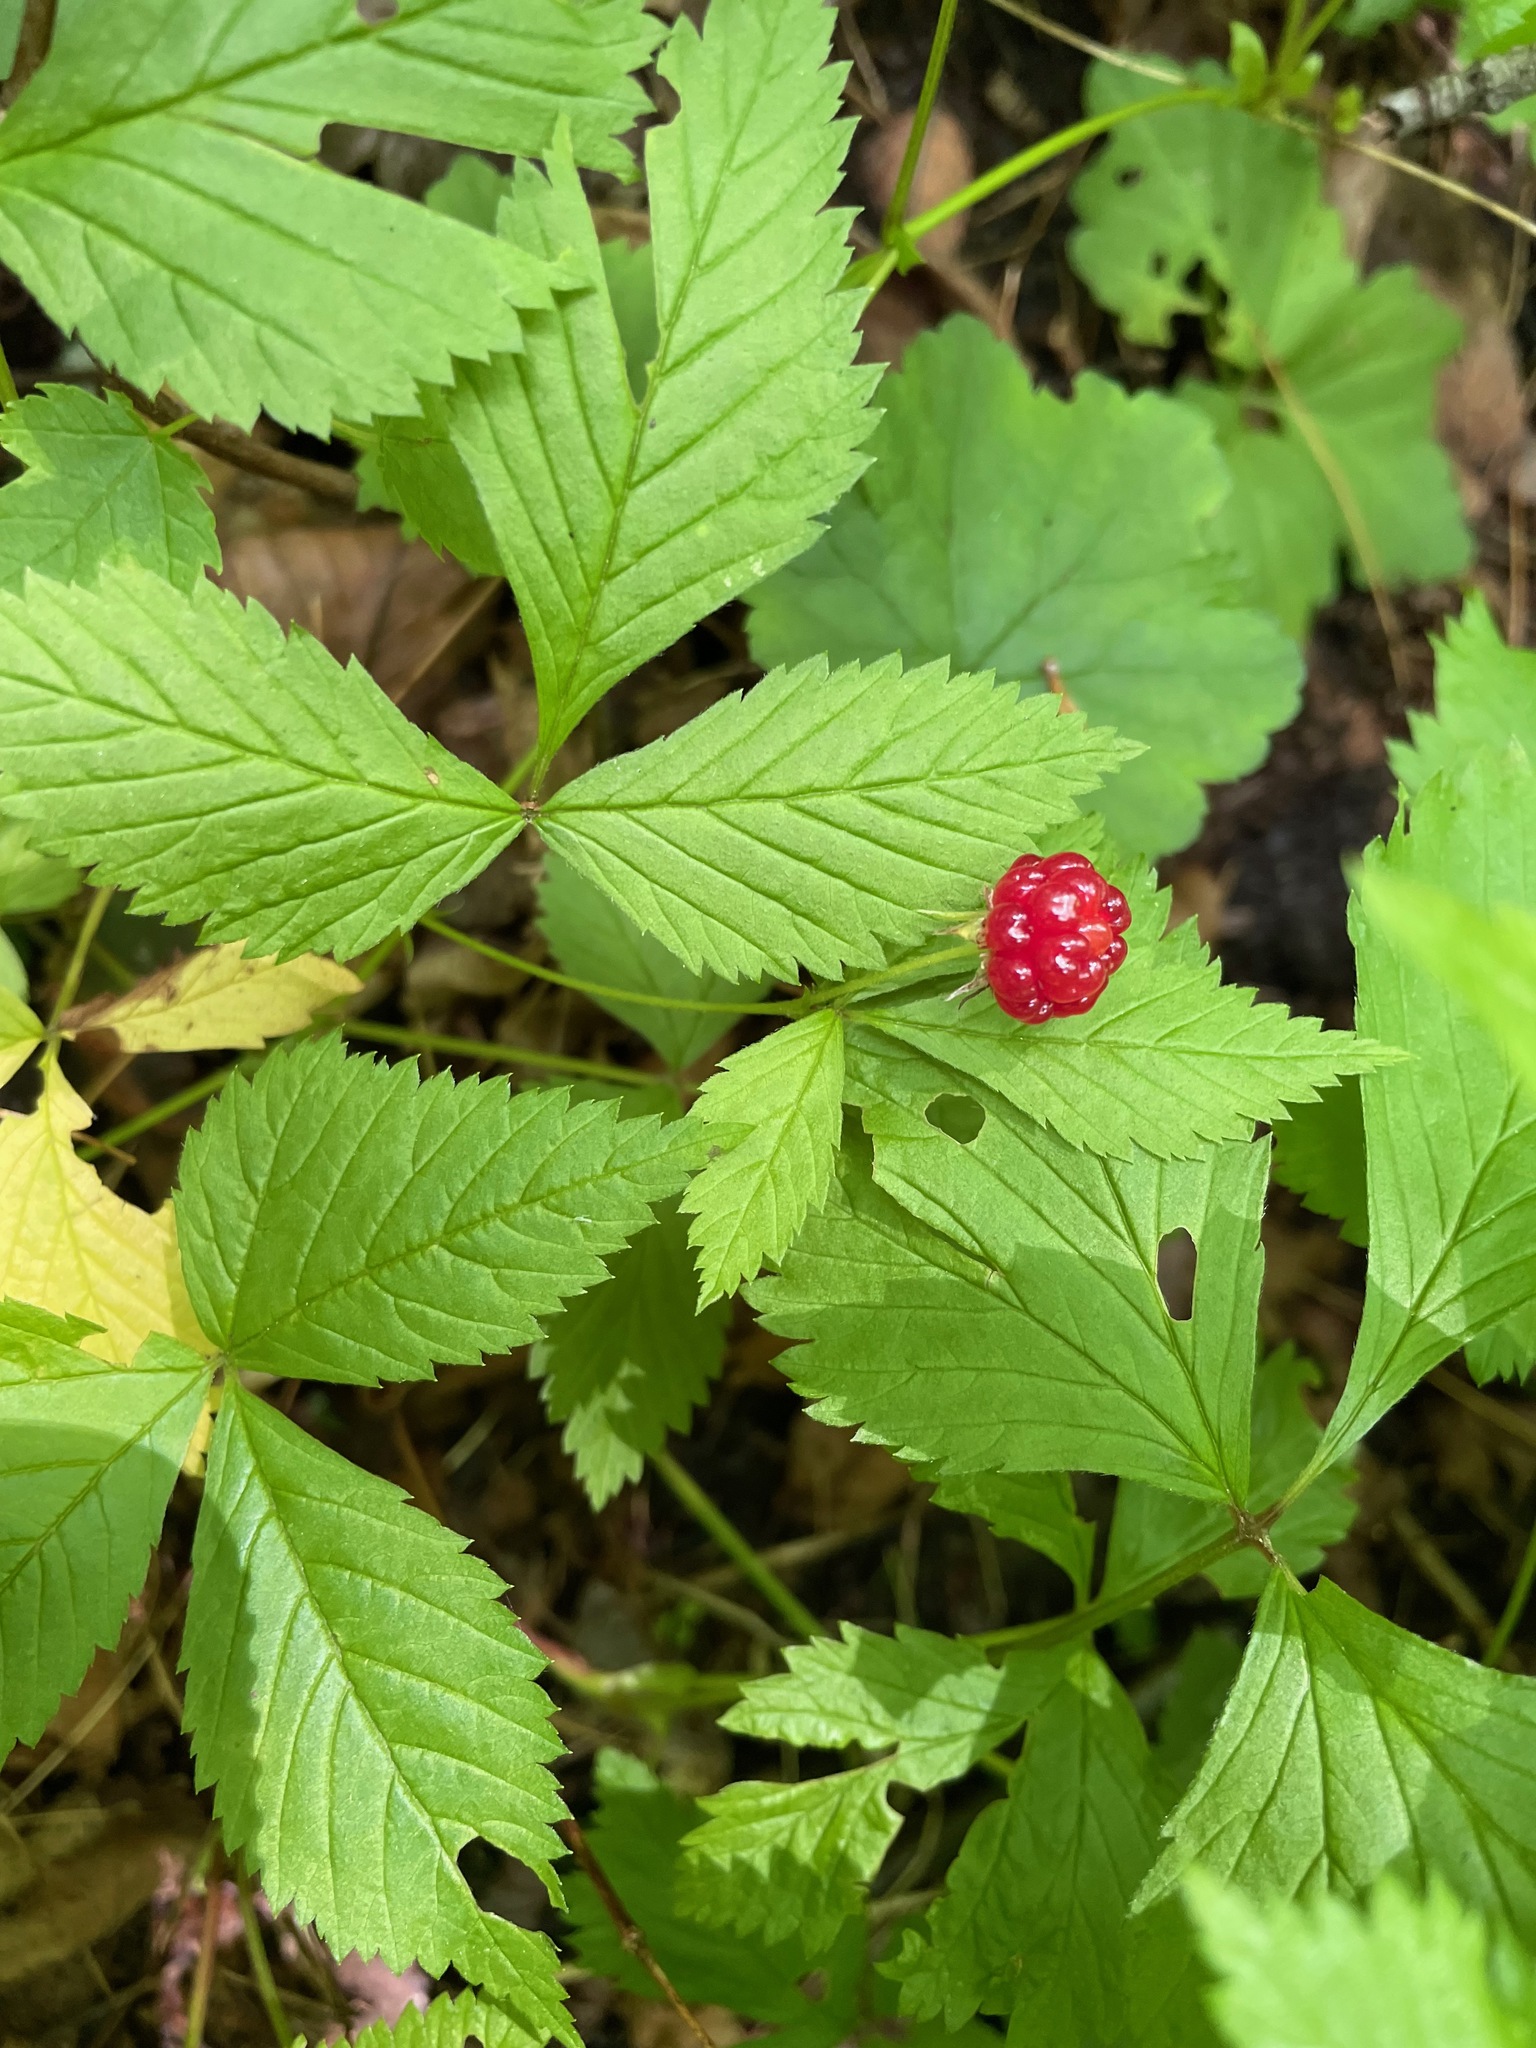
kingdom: Plantae
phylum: Tracheophyta
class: Magnoliopsida
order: Rosales
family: Rosaceae
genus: Rubus
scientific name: Rubus pubescens
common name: Dwarf raspberry
